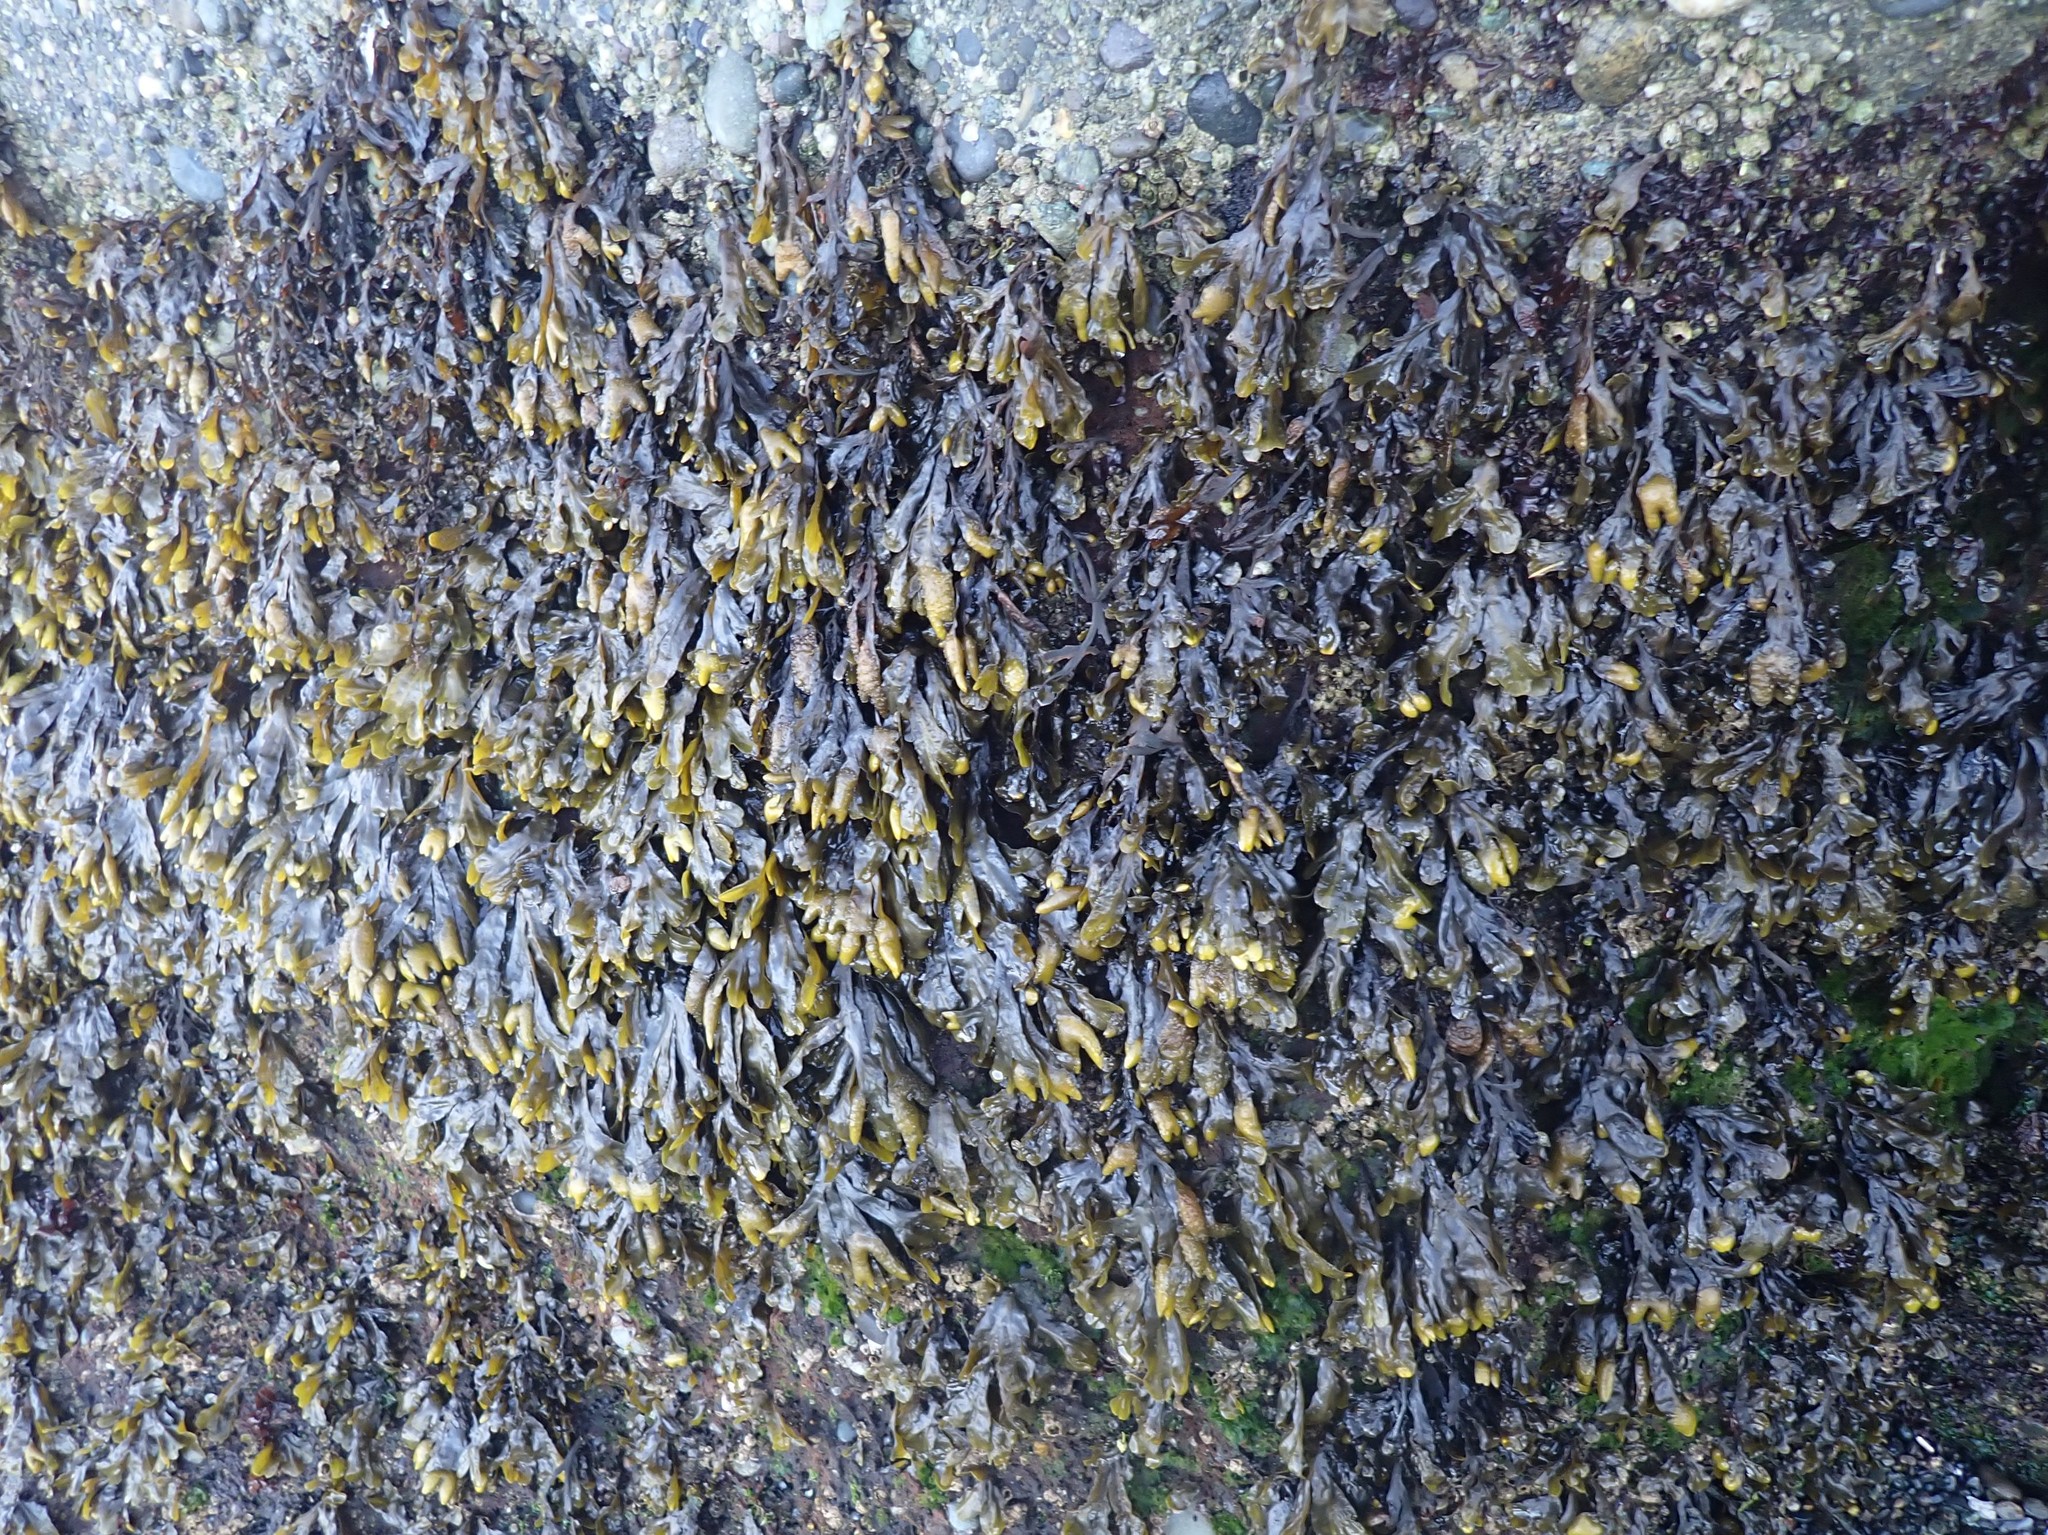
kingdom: Chromista
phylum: Ochrophyta
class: Phaeophyceae
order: Fucales
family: Fucaceae
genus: Fucus
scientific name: Fucus distichus
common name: Rockweed
